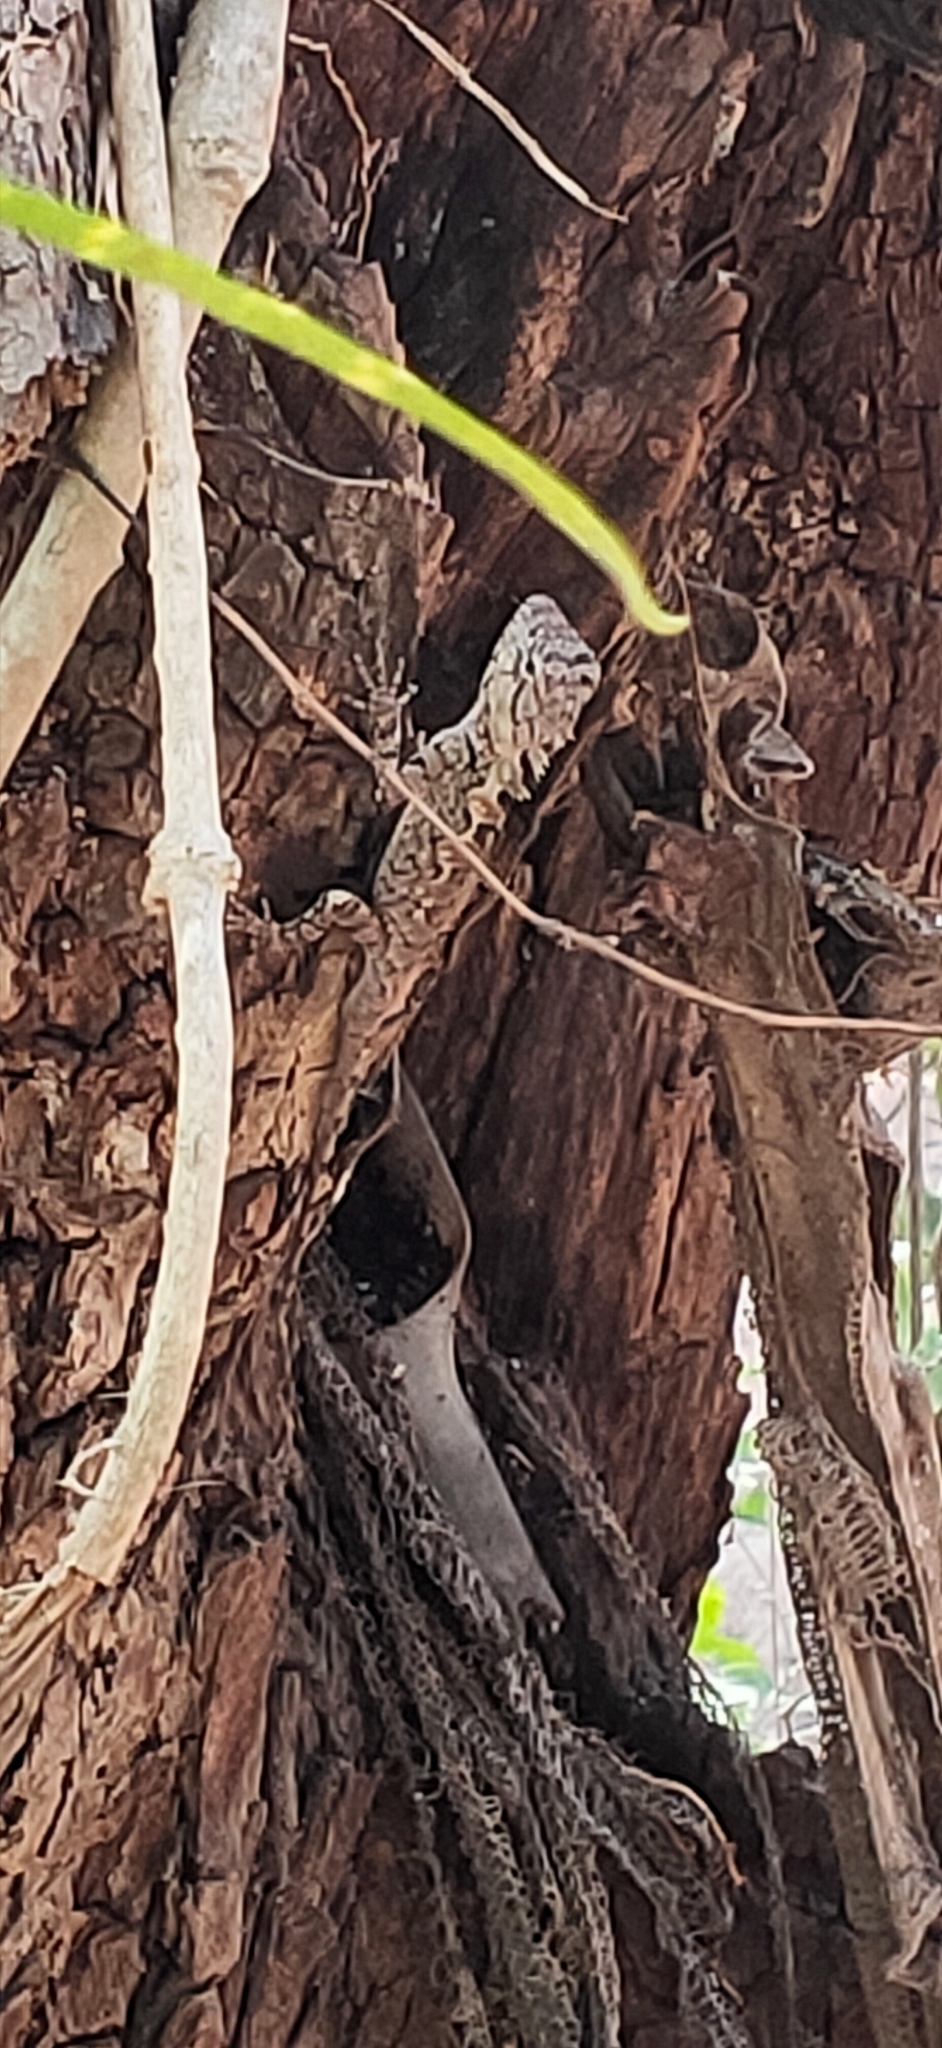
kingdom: Animalia
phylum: Chordata
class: Squamata
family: Agamidae
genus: Calotes
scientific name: Calotes goetzi
